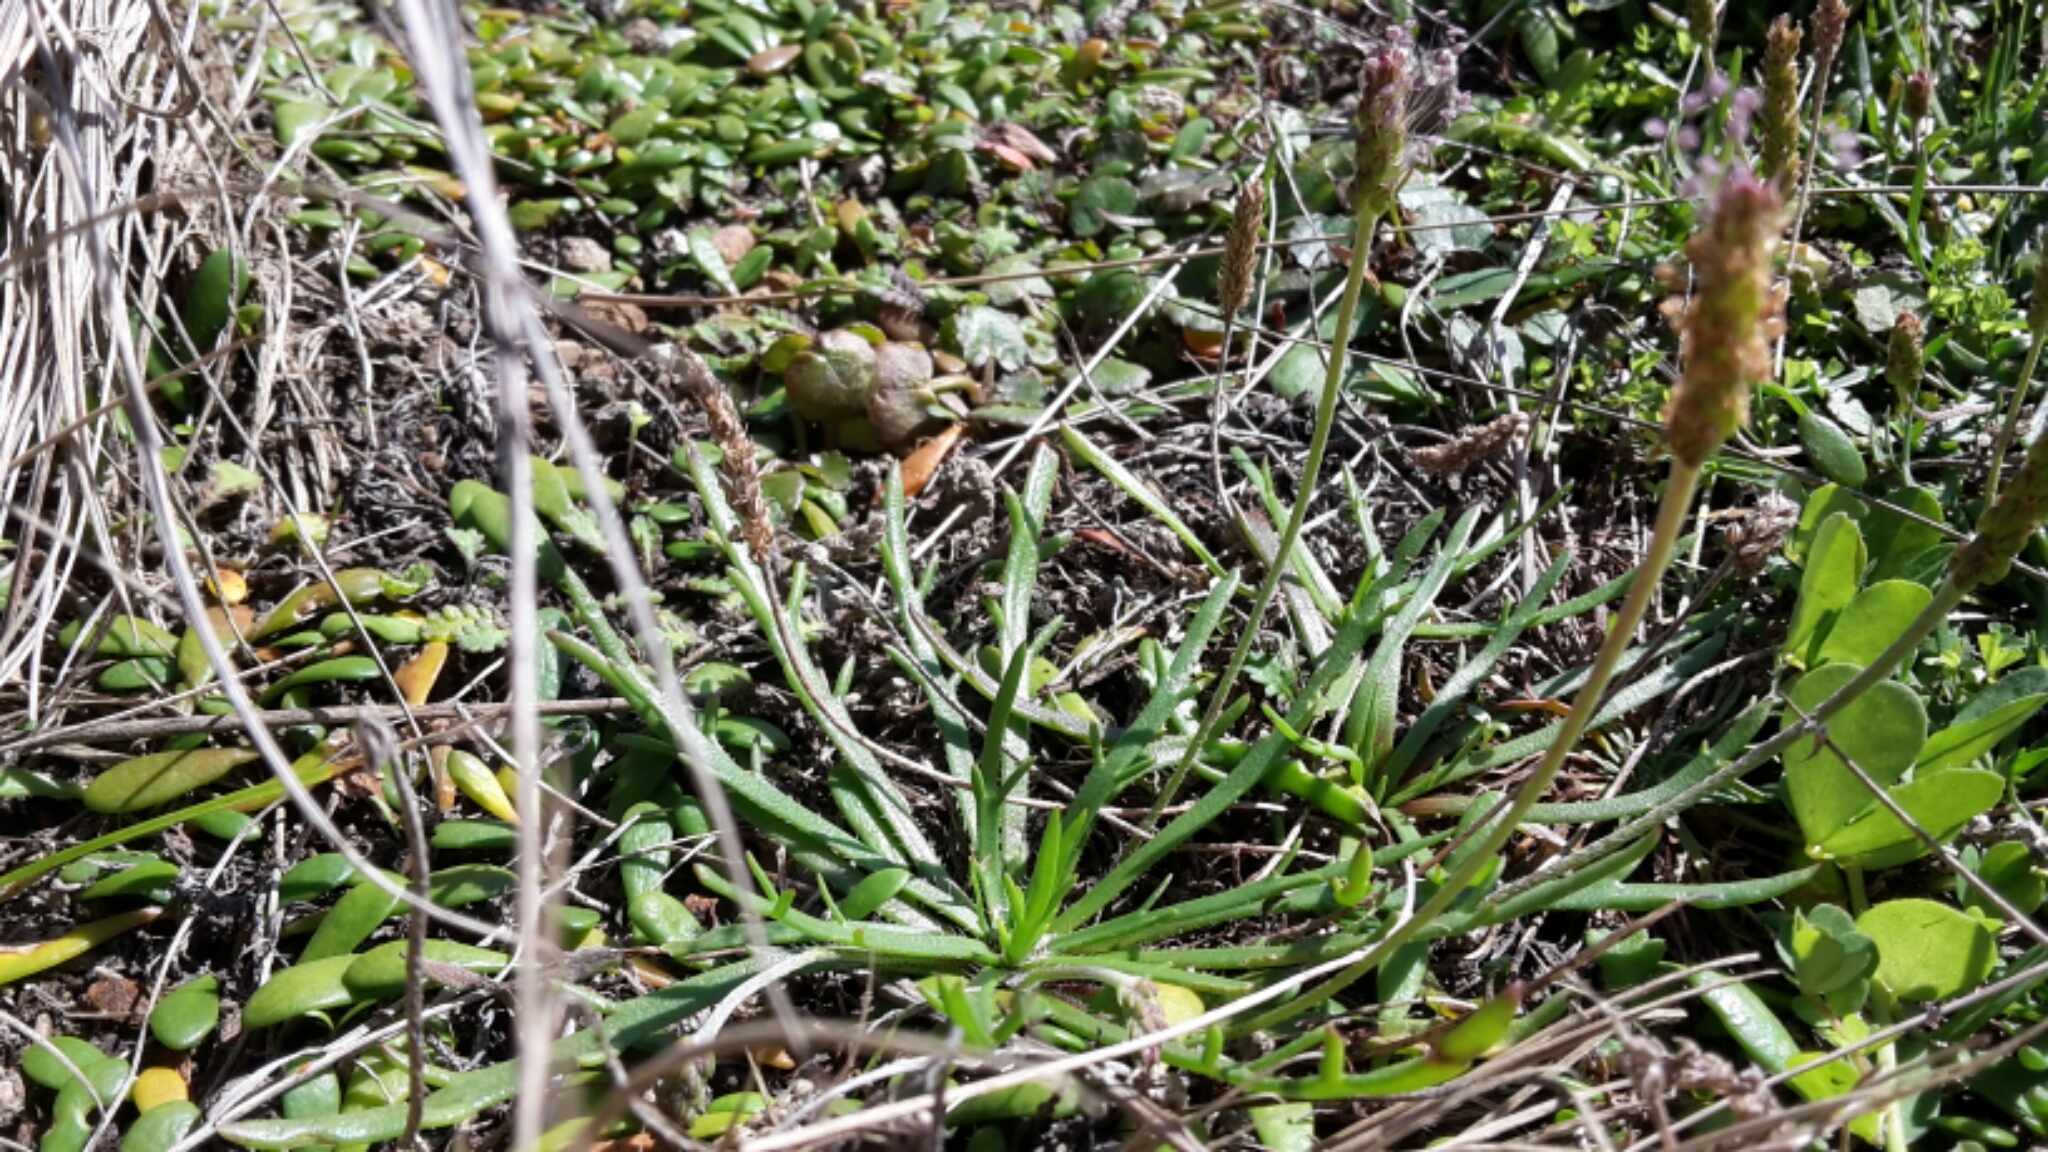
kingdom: Plantae
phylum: Tracheophyta
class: Magnoliopsida
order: Lamiales
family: Plantaginaceae
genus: Plantago
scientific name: Plantago coronopus
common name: Buck's-horn plantain
